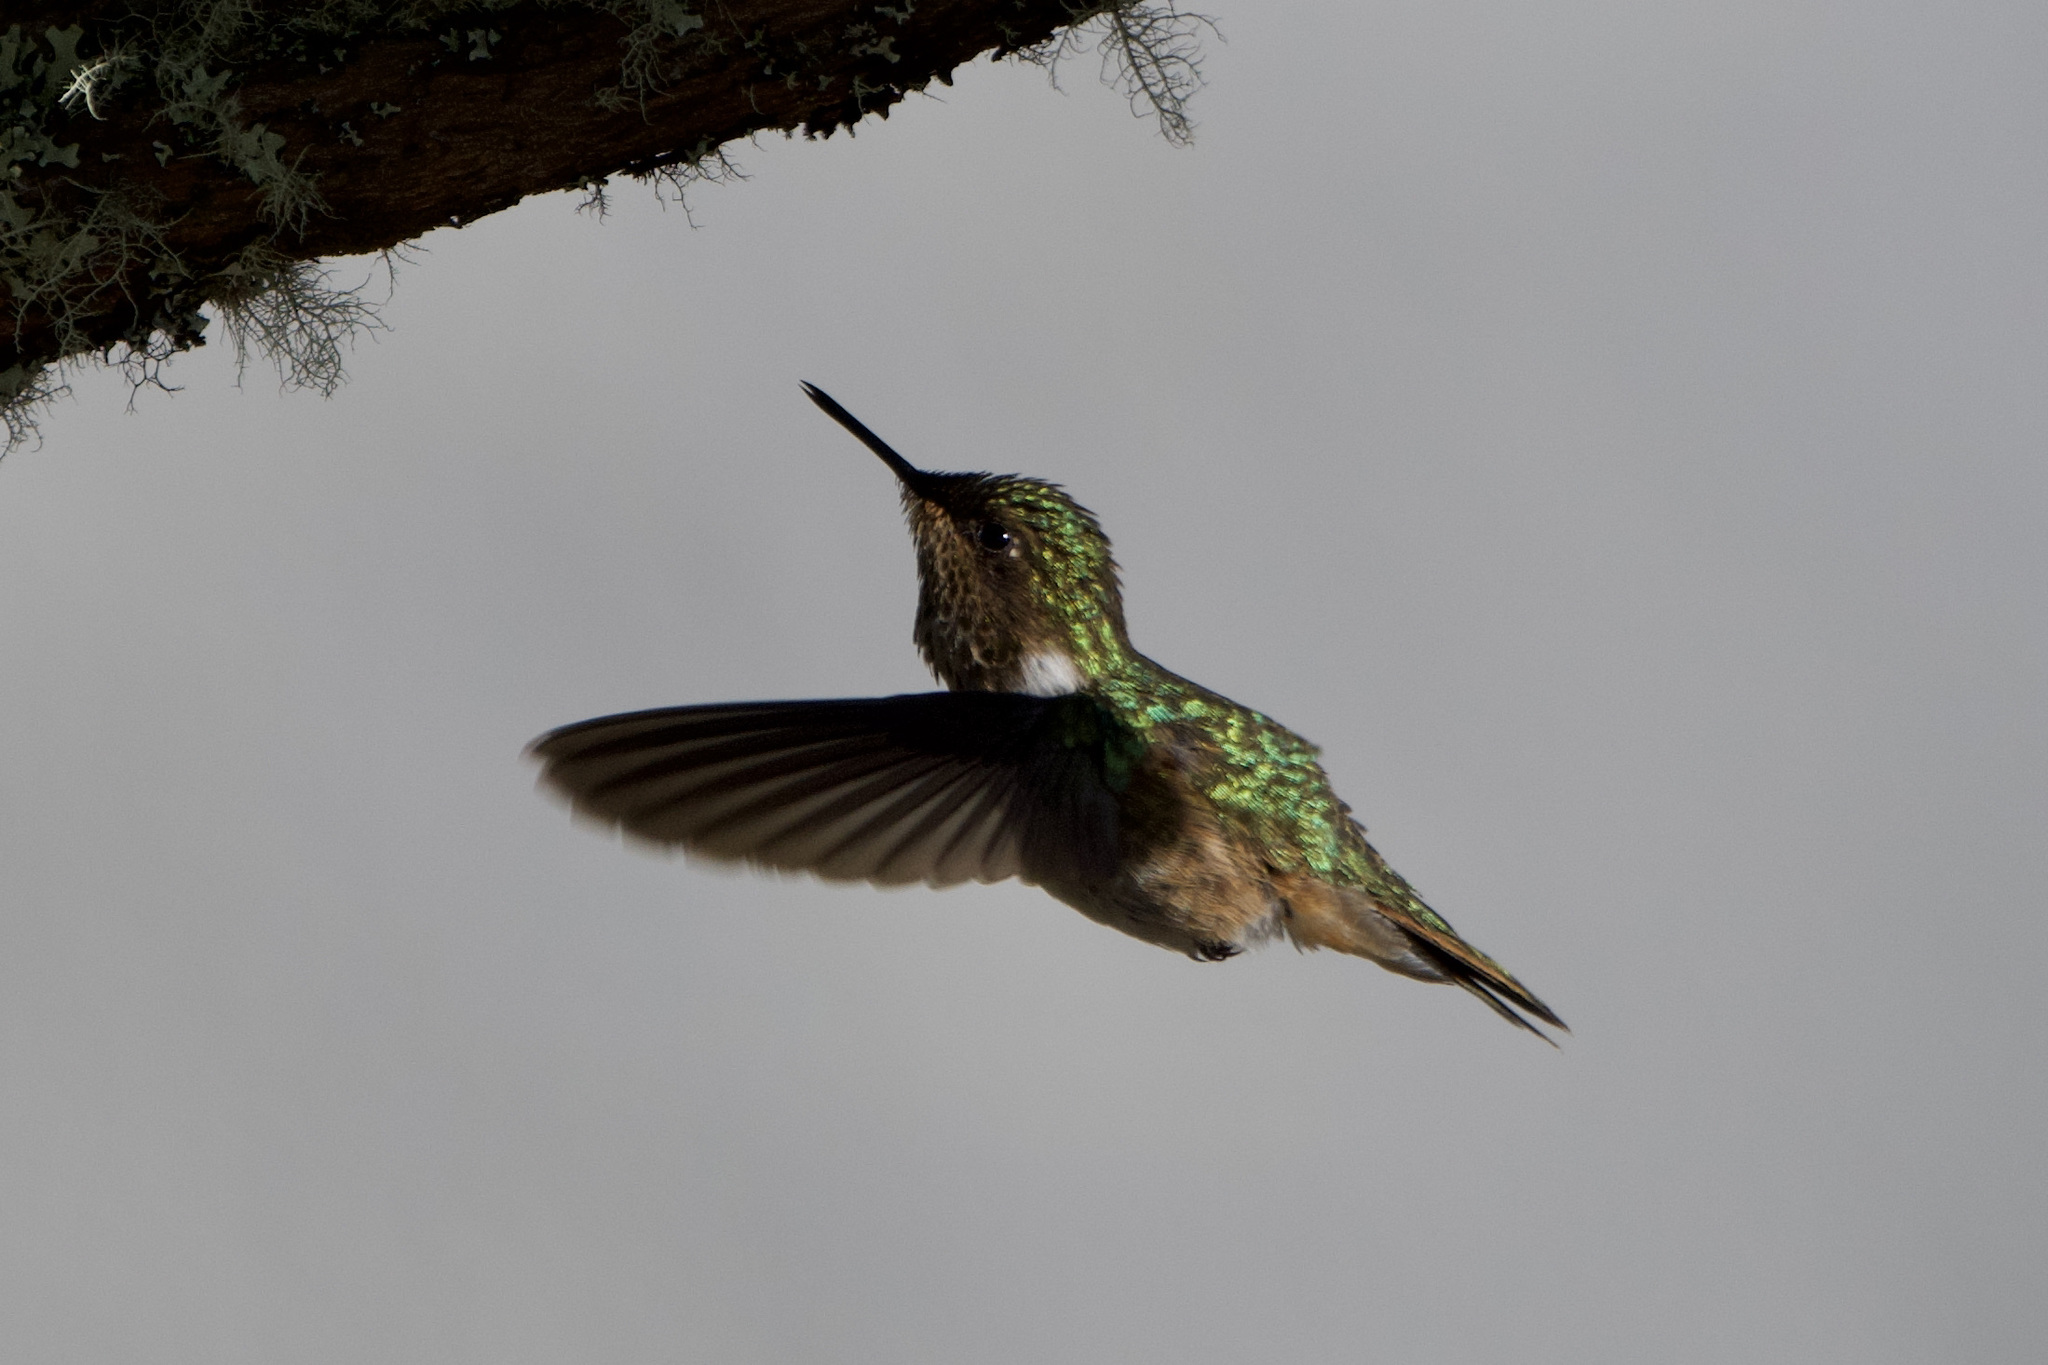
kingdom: Animalia
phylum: Chordata
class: Aves
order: Apodiformes
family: Trochilidae
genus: Selasphorus
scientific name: Selasphorus flammula
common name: Volcano hummingbird
